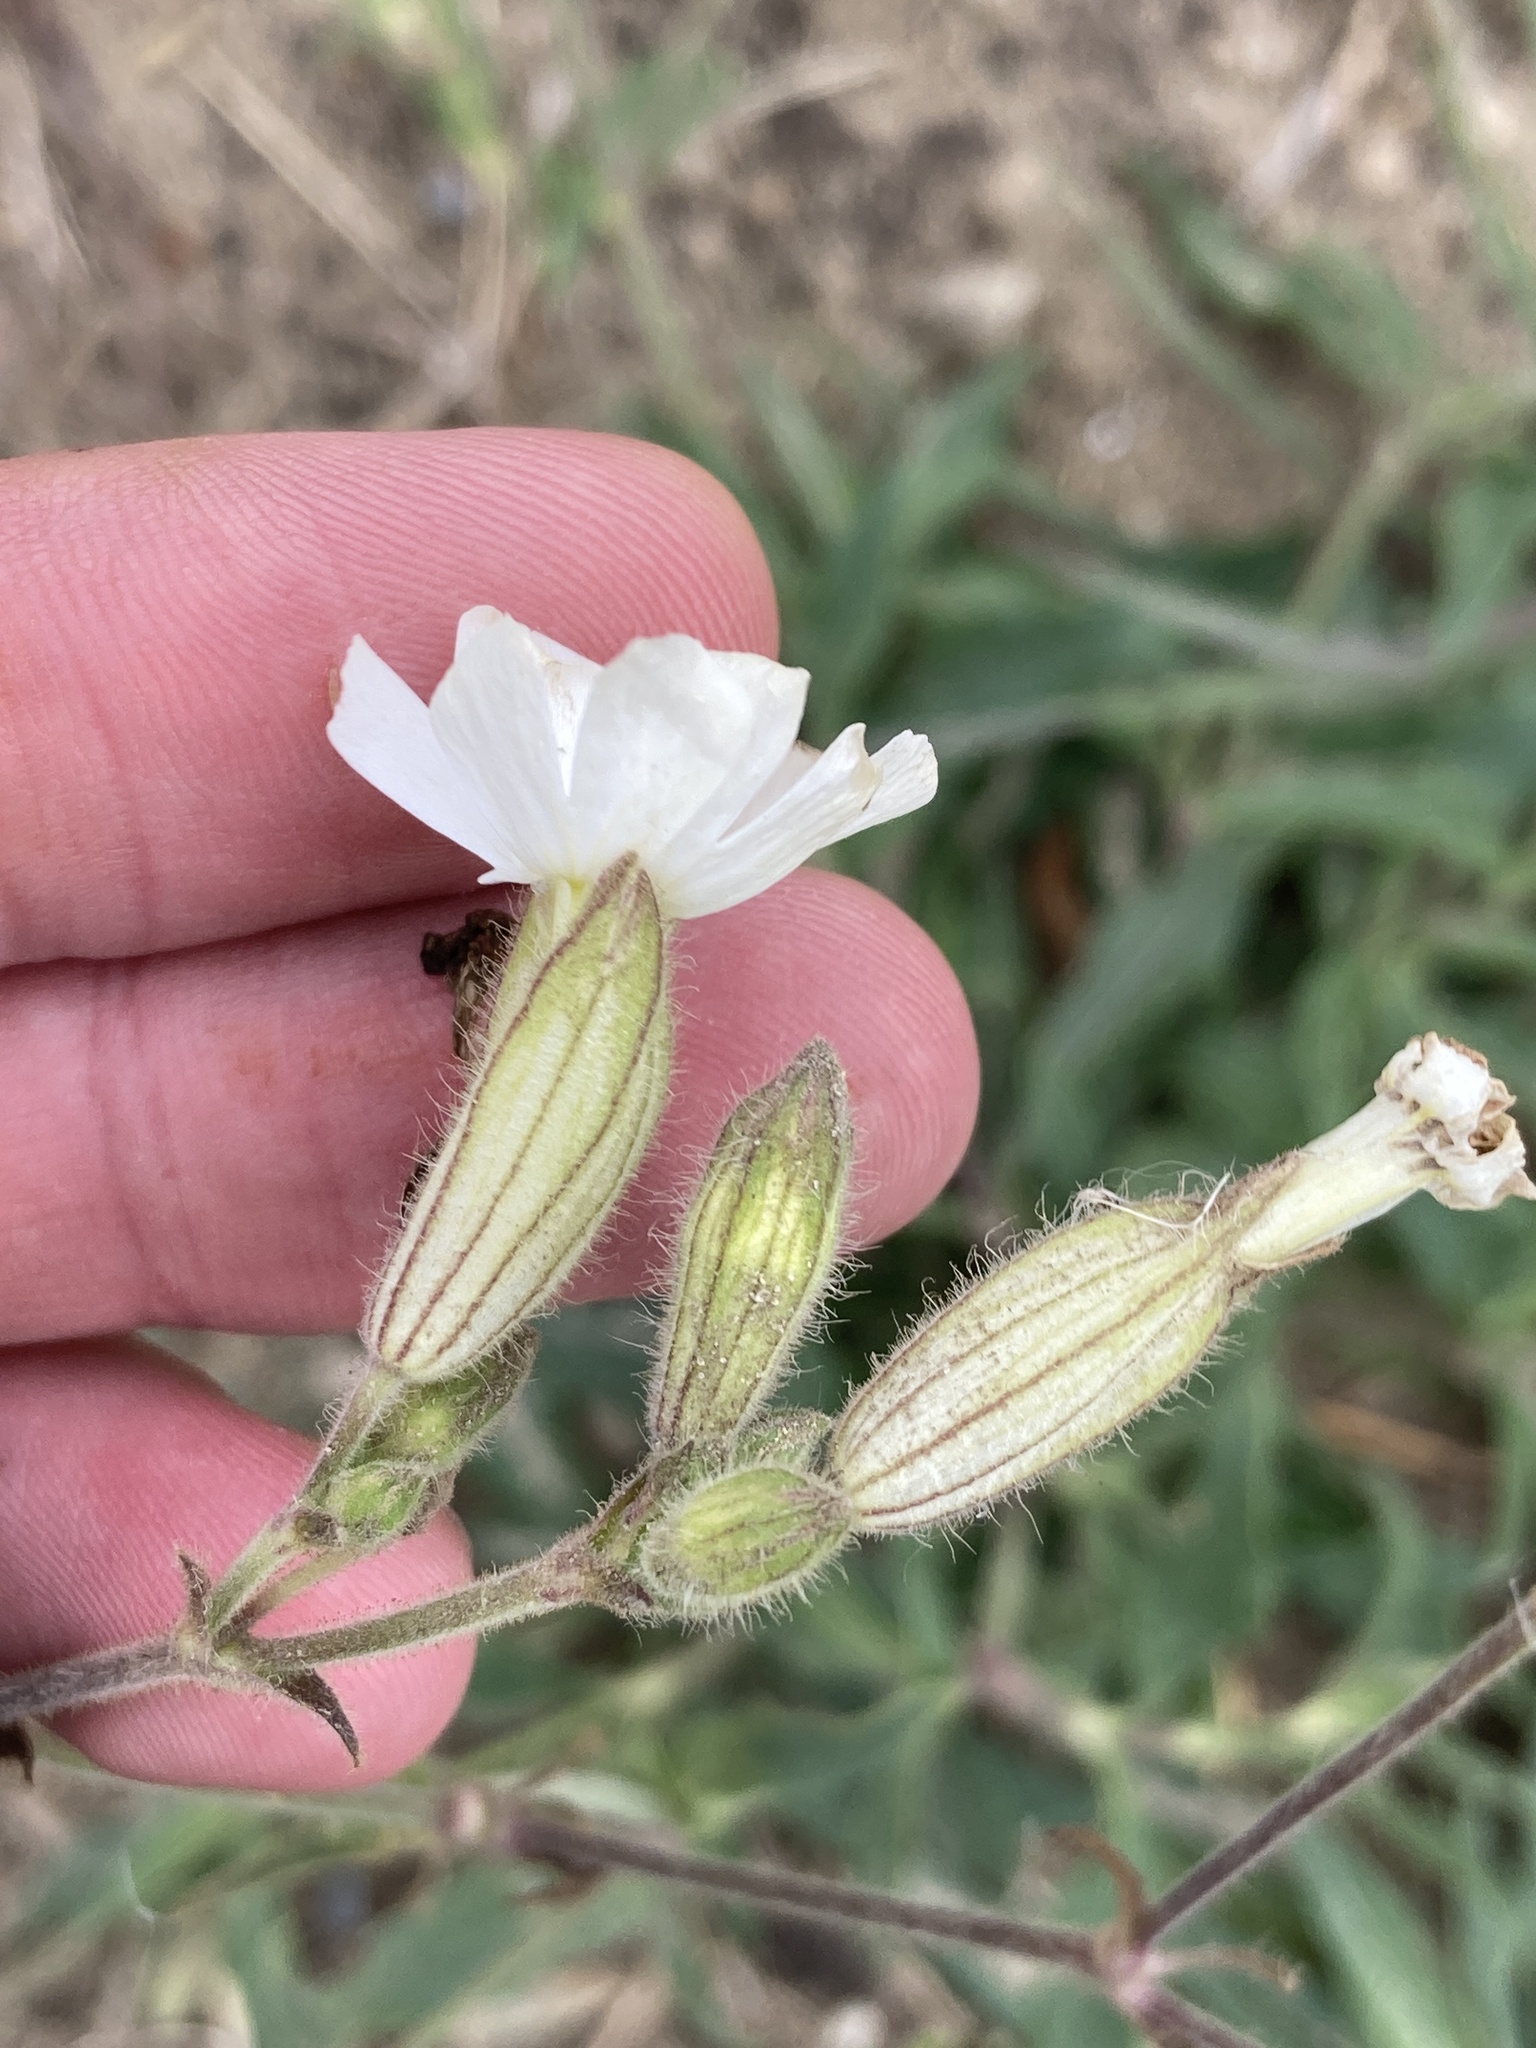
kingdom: Plantae
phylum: Tracheophyta
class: Magnoliopsida
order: Caryophyllales
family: Caryophyllaceae
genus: Silene
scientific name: Silene latifolia
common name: White campion
